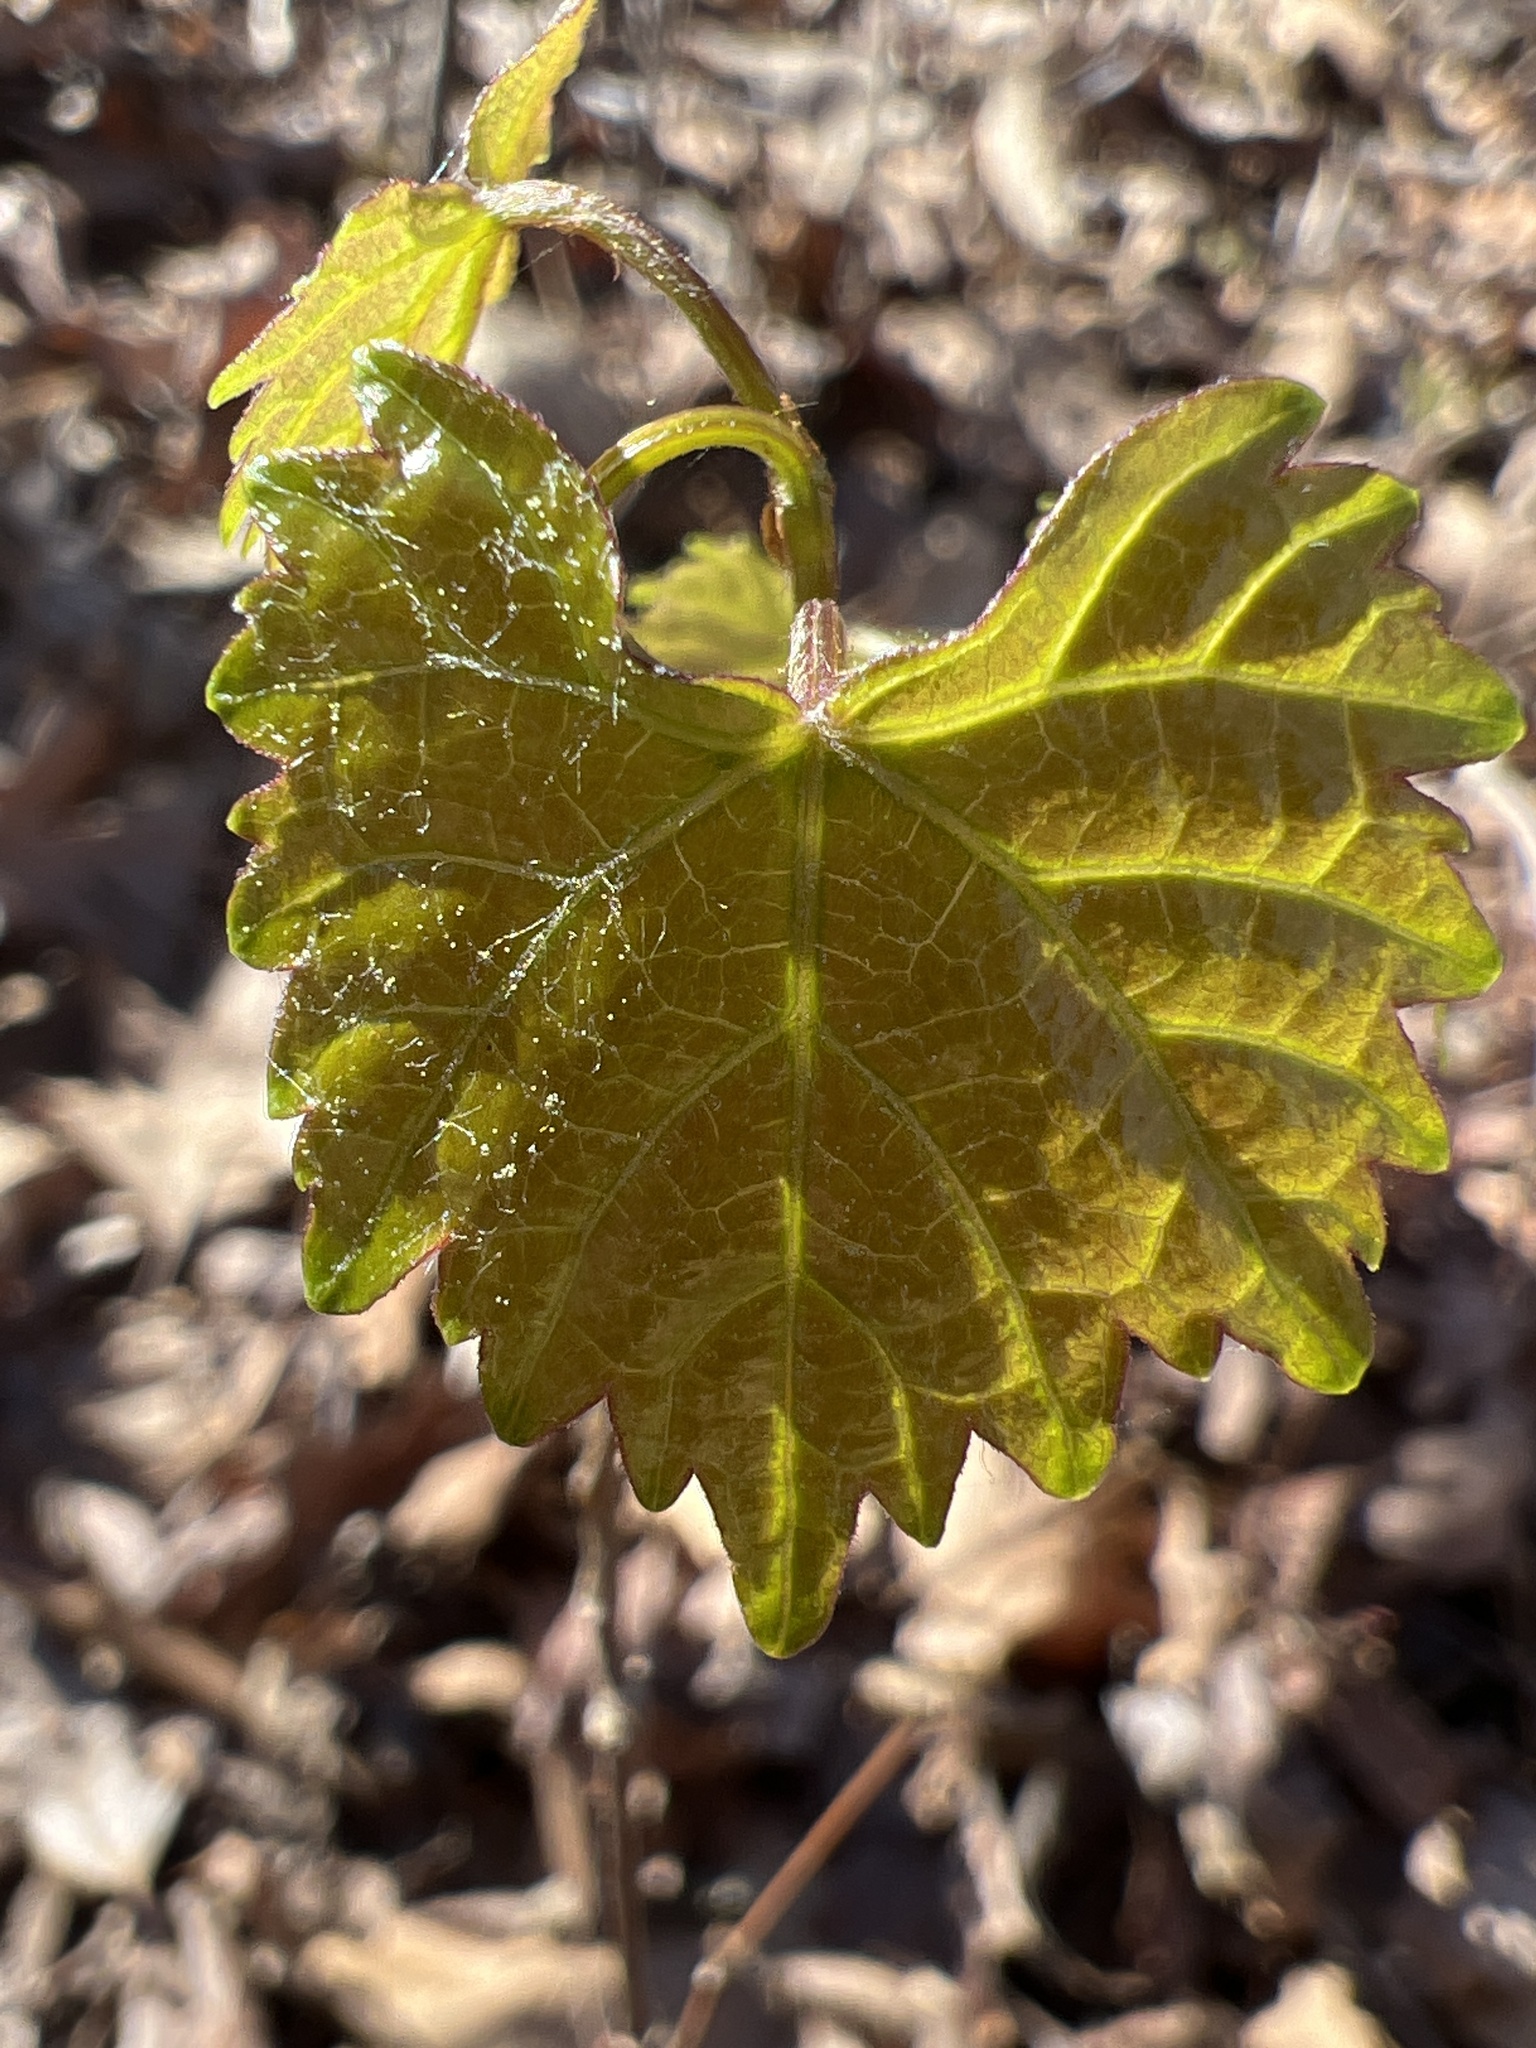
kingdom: Plantae
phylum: Tracheophyta
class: Magnoliopsida
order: Vitales
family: Vitaceae
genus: Vitis
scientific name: Vitis rotundifolia
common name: Muscadine grape
